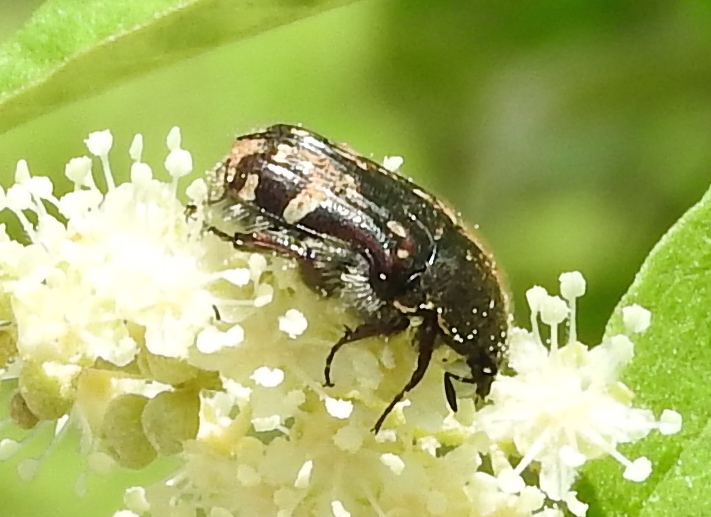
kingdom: Animalia
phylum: Arthropoda
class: Insecta
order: Coleoptera
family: Scarabaeidae
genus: Euphoria
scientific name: Euphoria
